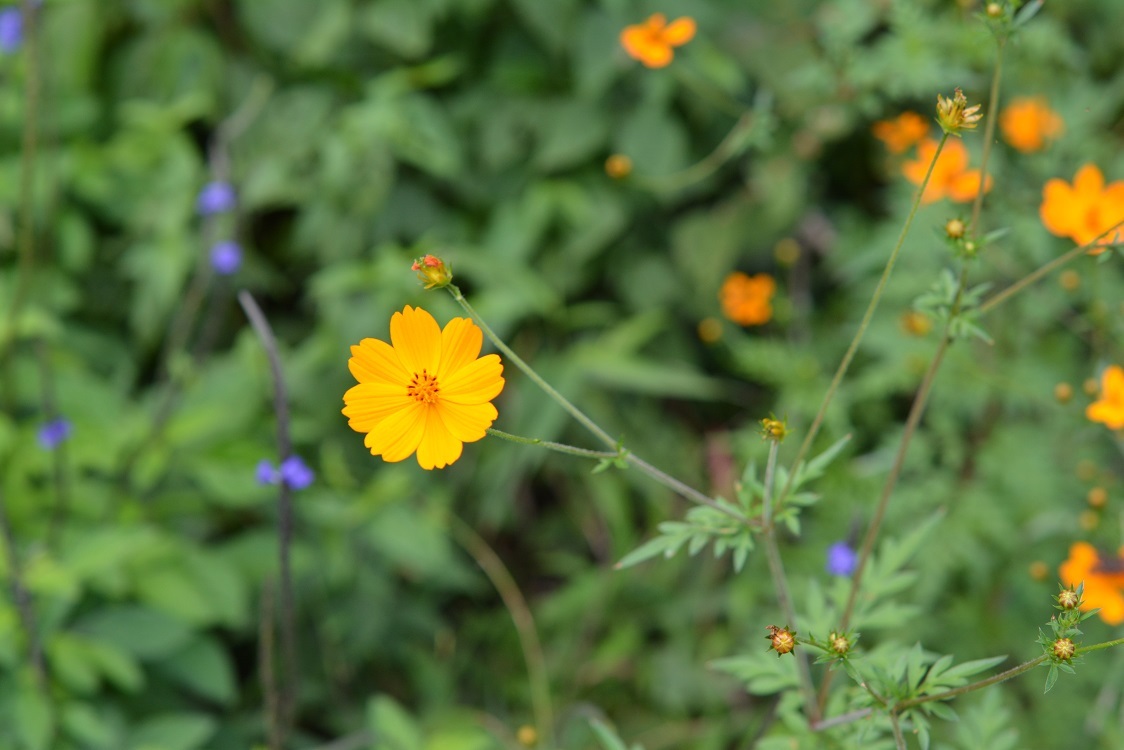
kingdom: Plantae
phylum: Tracheophyta
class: Magnoliopsida
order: Asterales
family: Asteraceae
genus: Cosmos
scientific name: Cosmos sulphureus
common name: Sulphur cosmos
